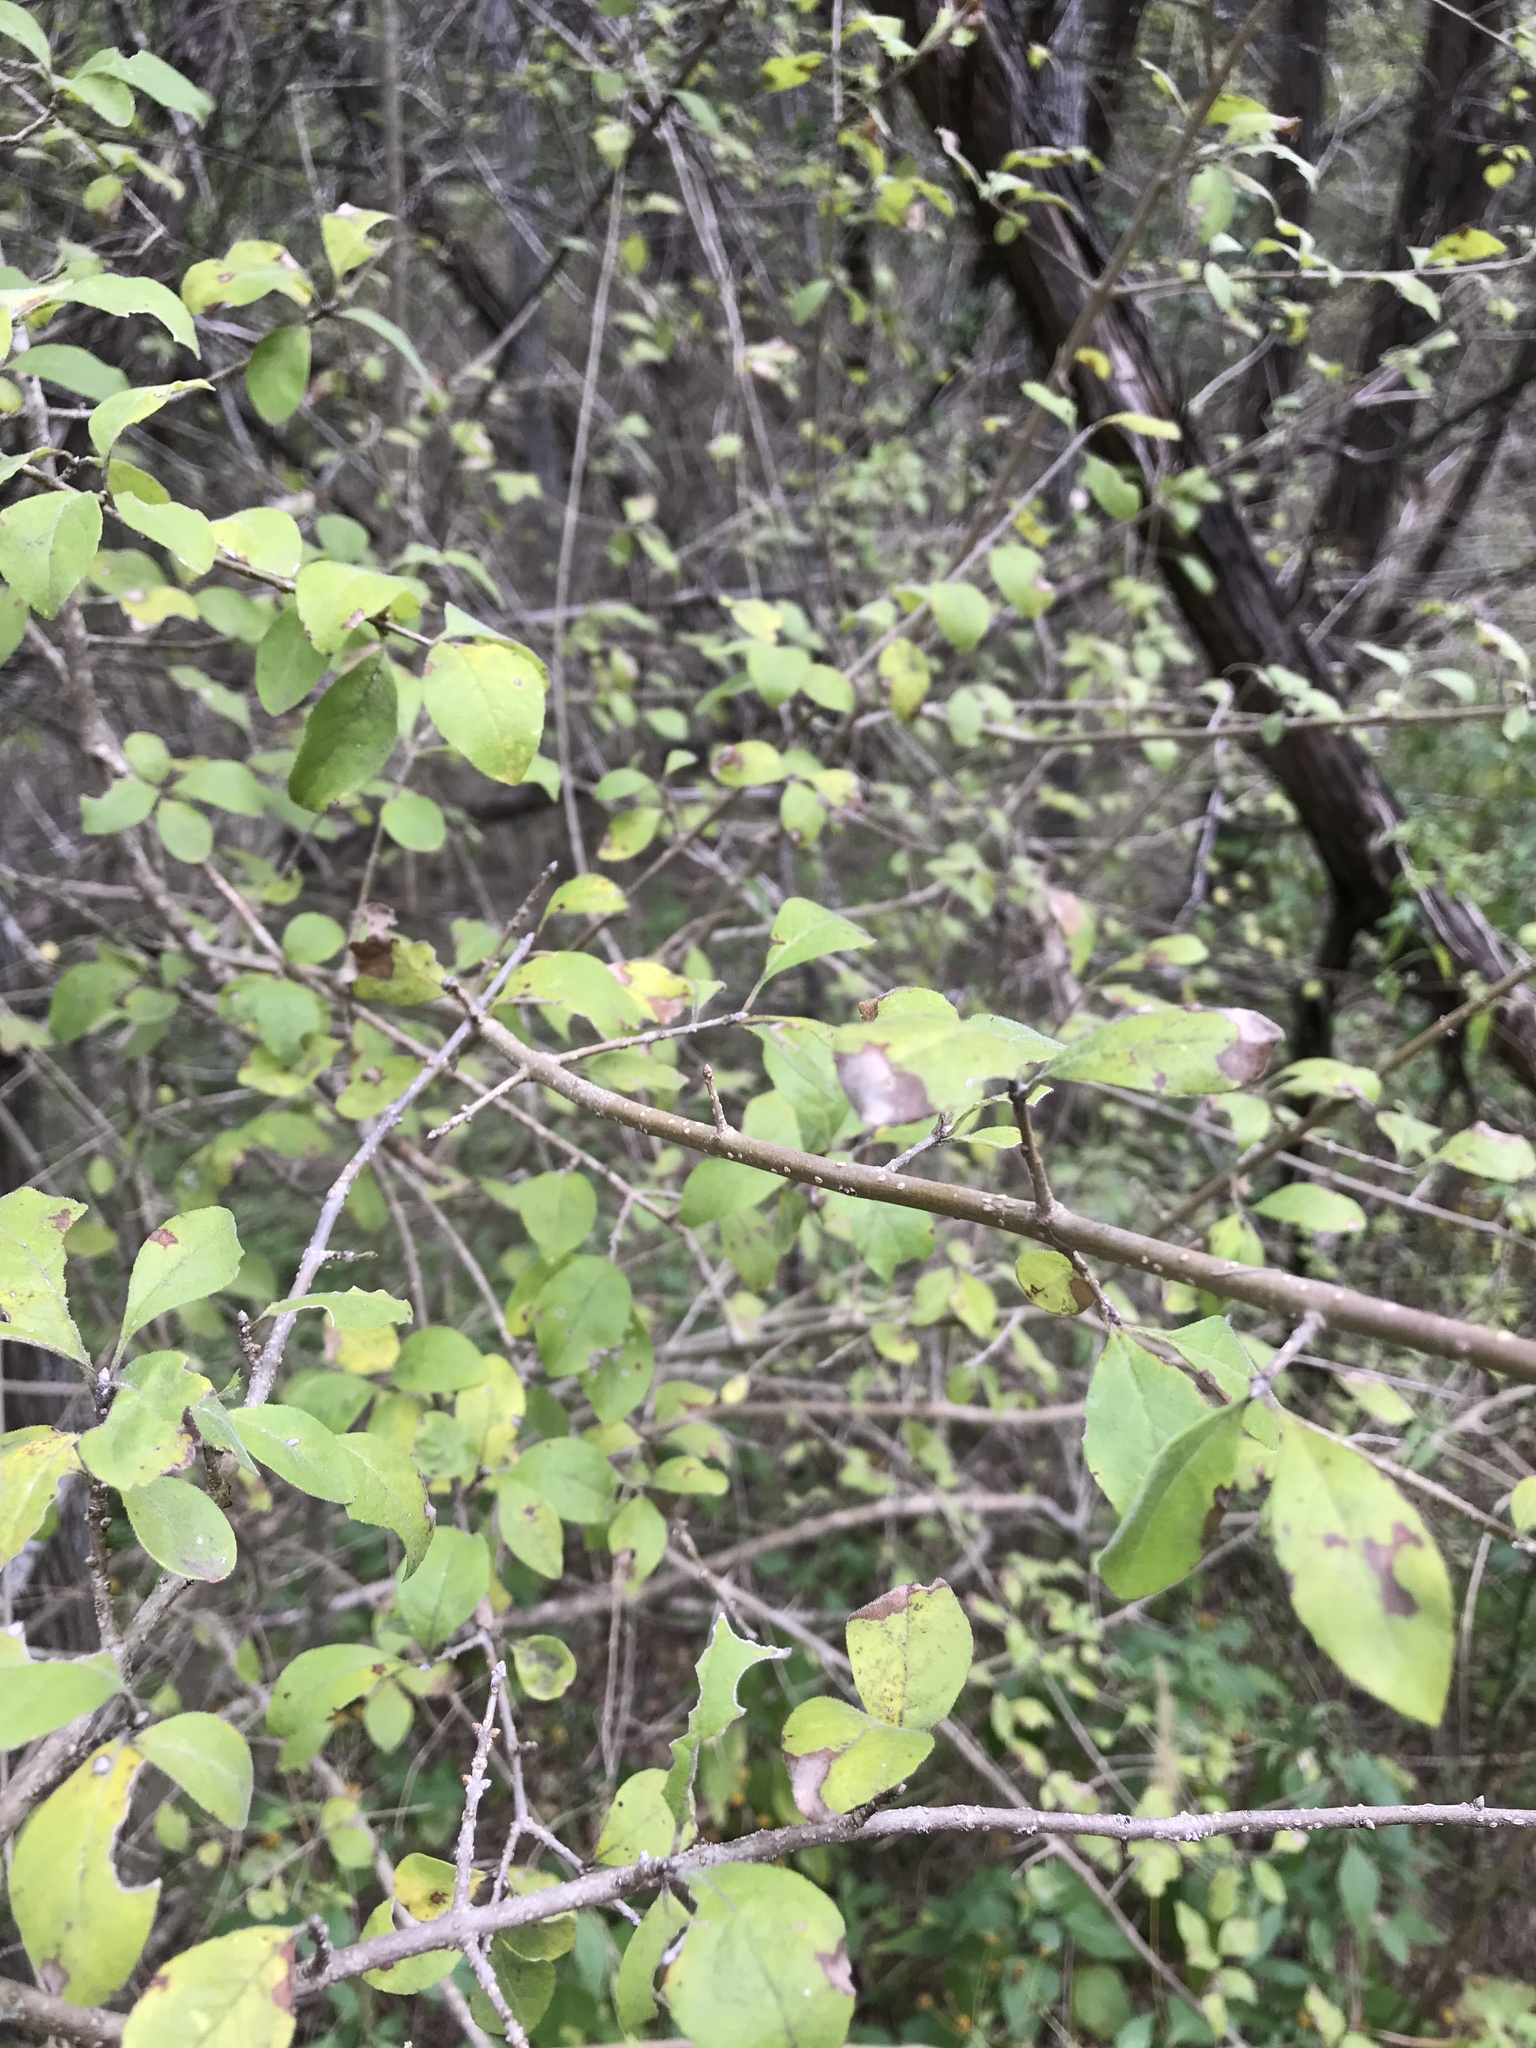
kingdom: Plantae
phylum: Tracheophyta
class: Magnoliopsida
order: Lamiales
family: Oleaceae
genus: Forestiera
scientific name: Forestiera pubescens
